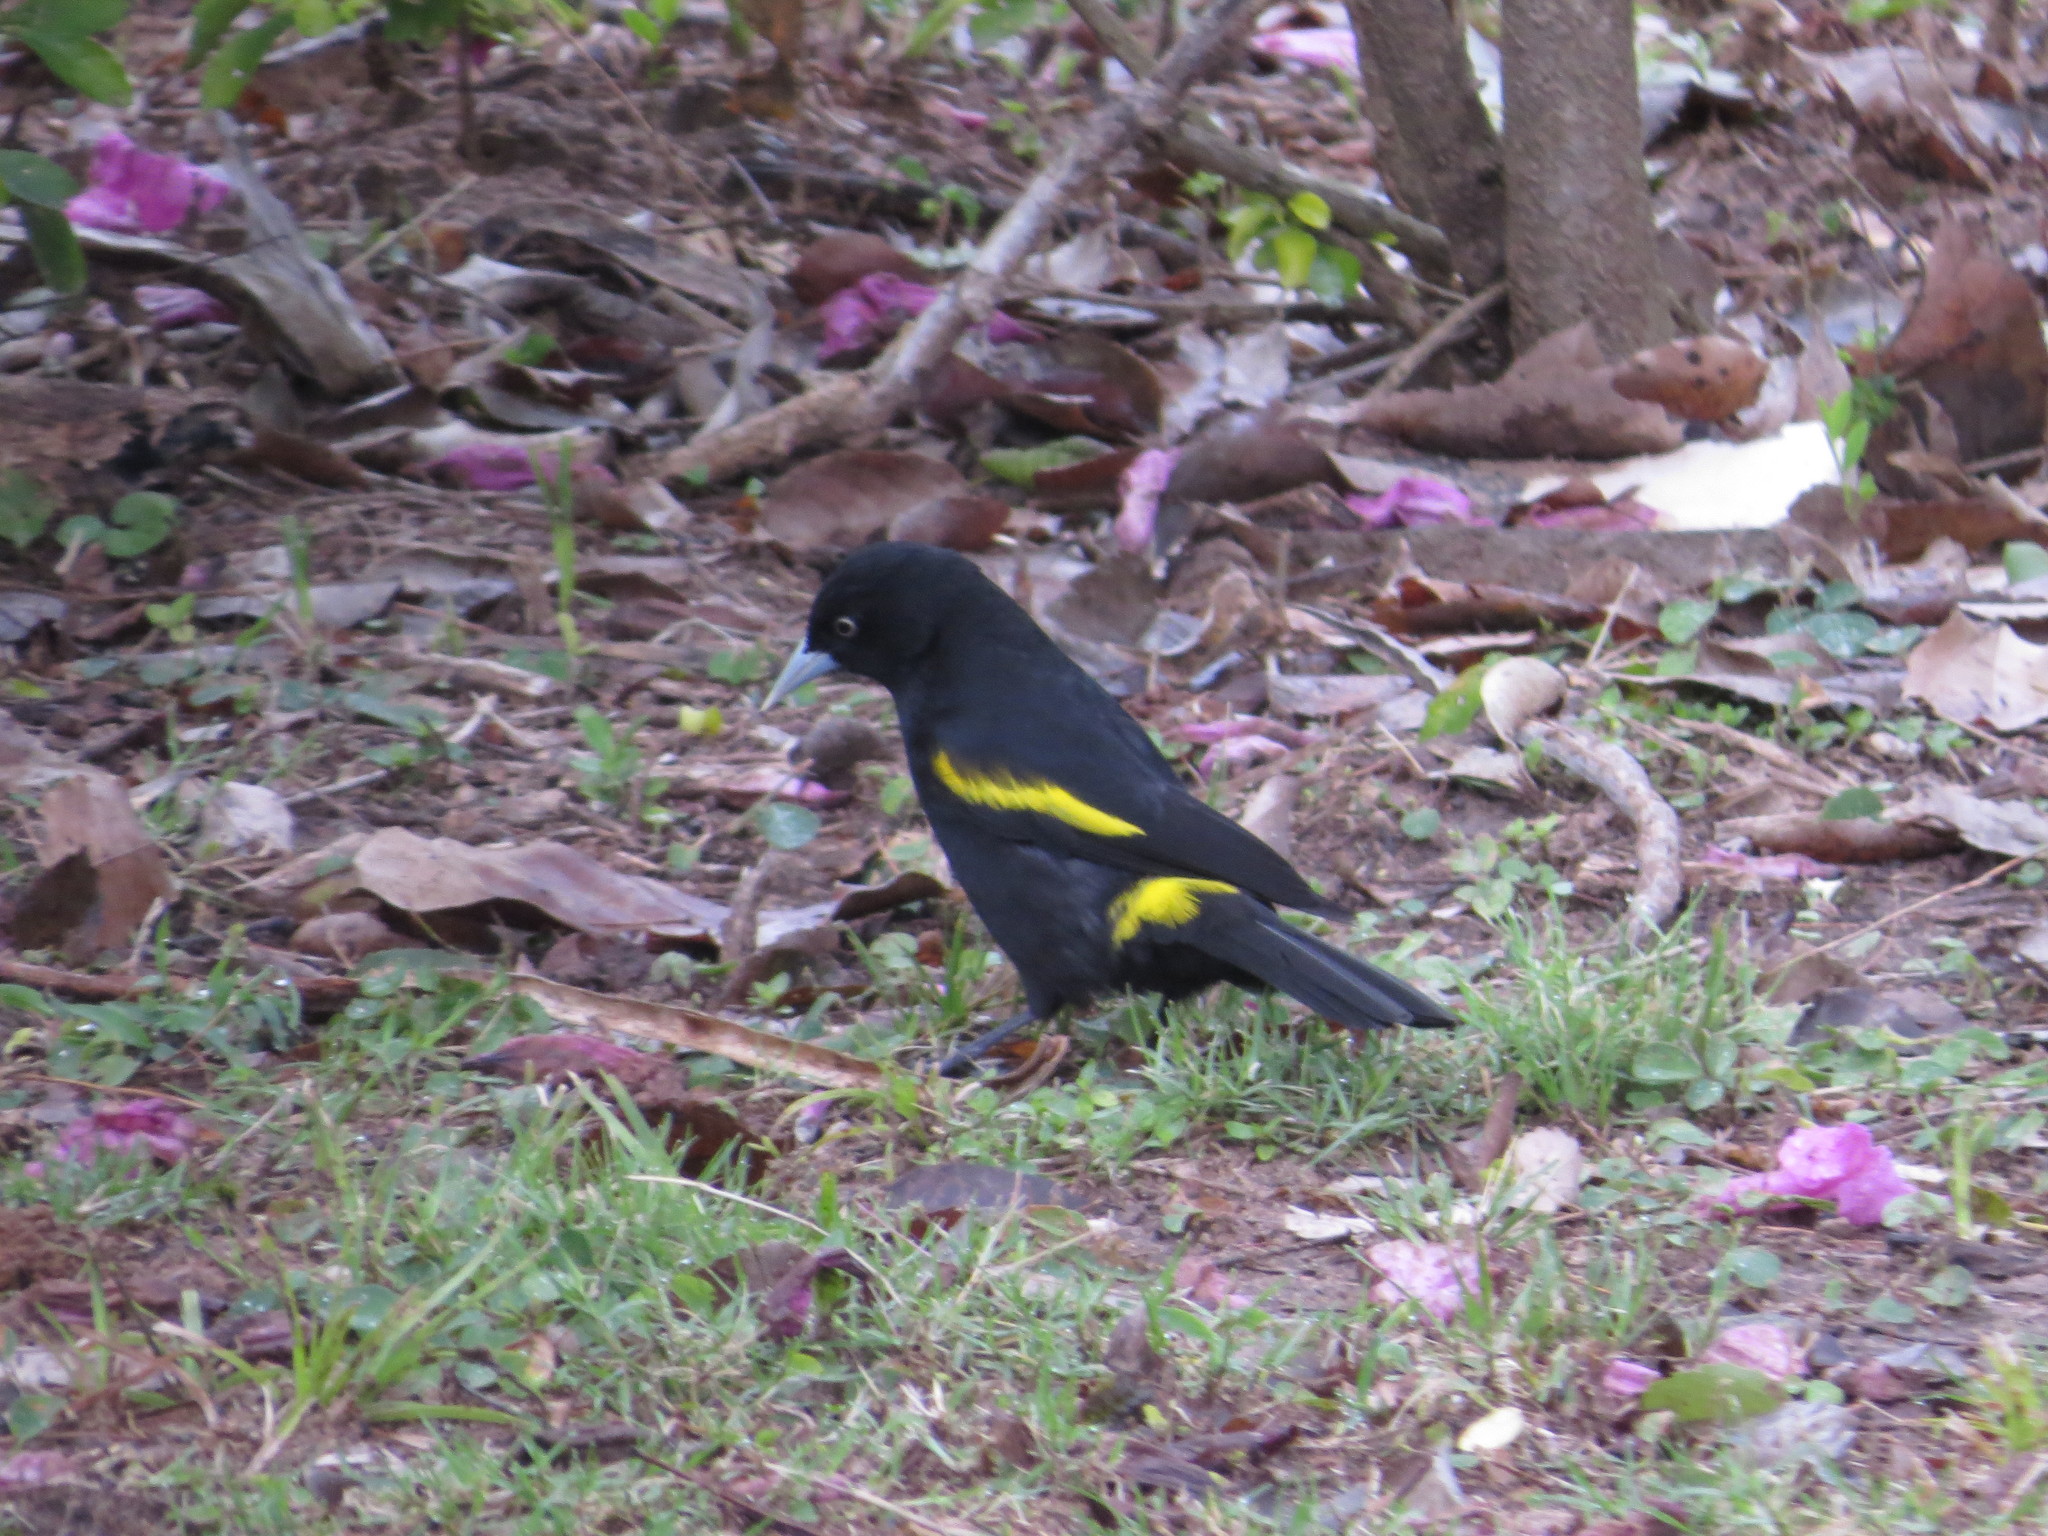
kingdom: Animalia
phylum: Chordata
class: Aves
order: Passeriformes
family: Icteridae
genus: Cacicus
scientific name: Cacicus chrysopterus
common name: Golden-winged cacique
